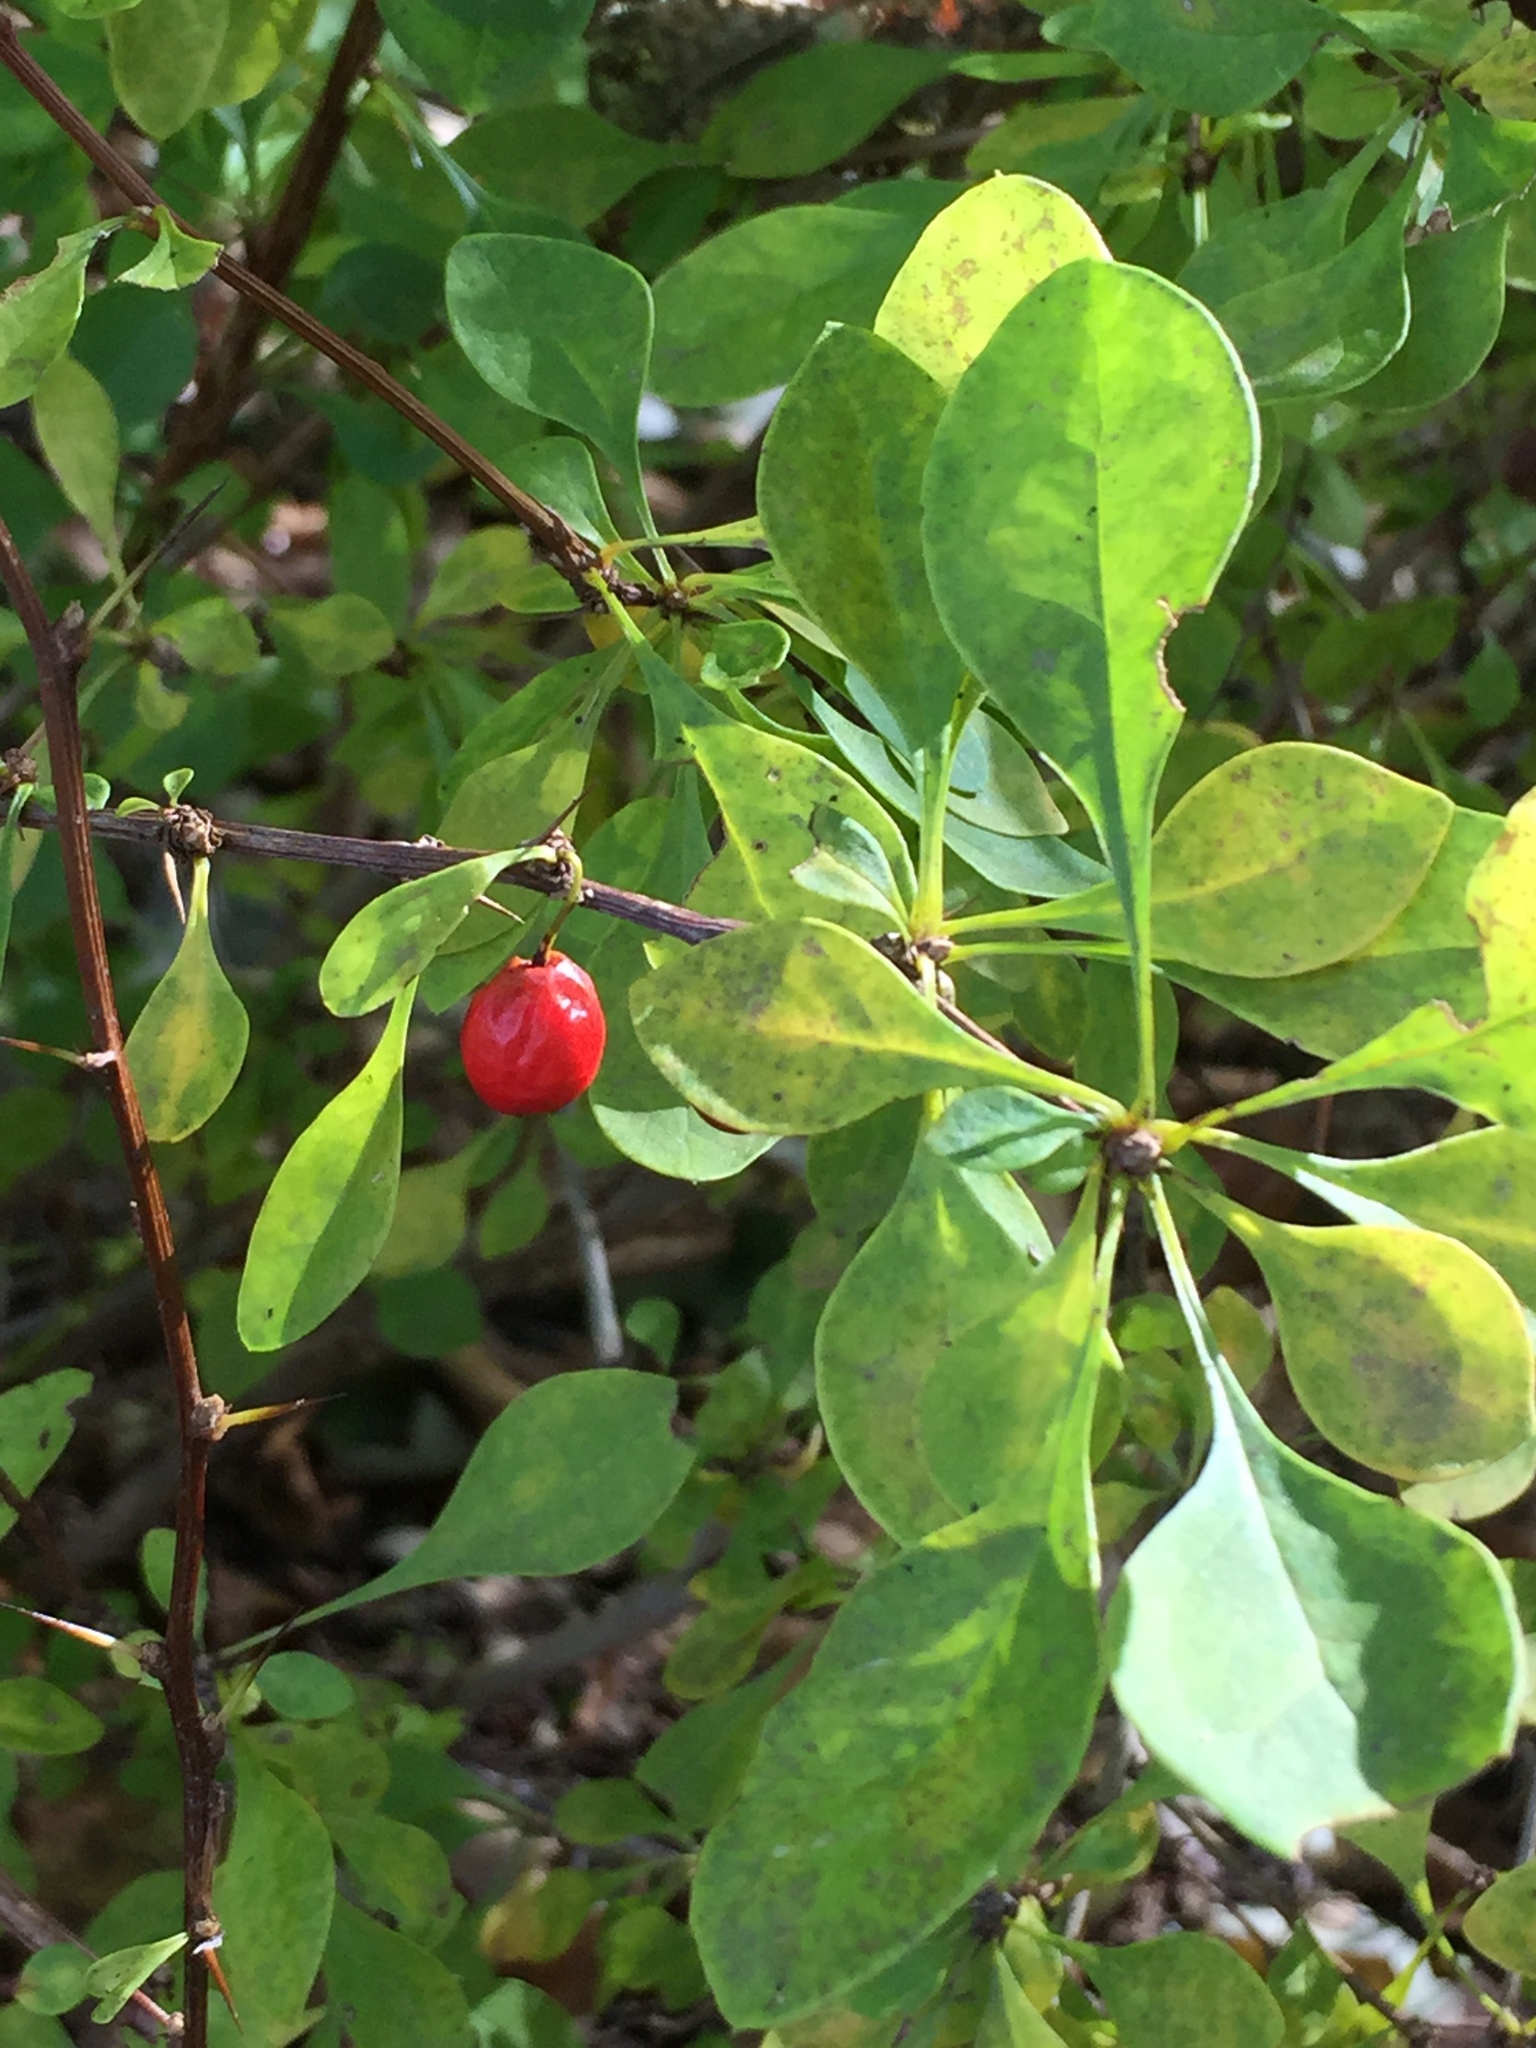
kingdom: Plantae
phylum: Tracheophyta
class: Magnoliopsida
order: Ranunculales
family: Berberidaceae
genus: Berberis
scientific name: Berberis thunbergii
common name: Japanese barberry
